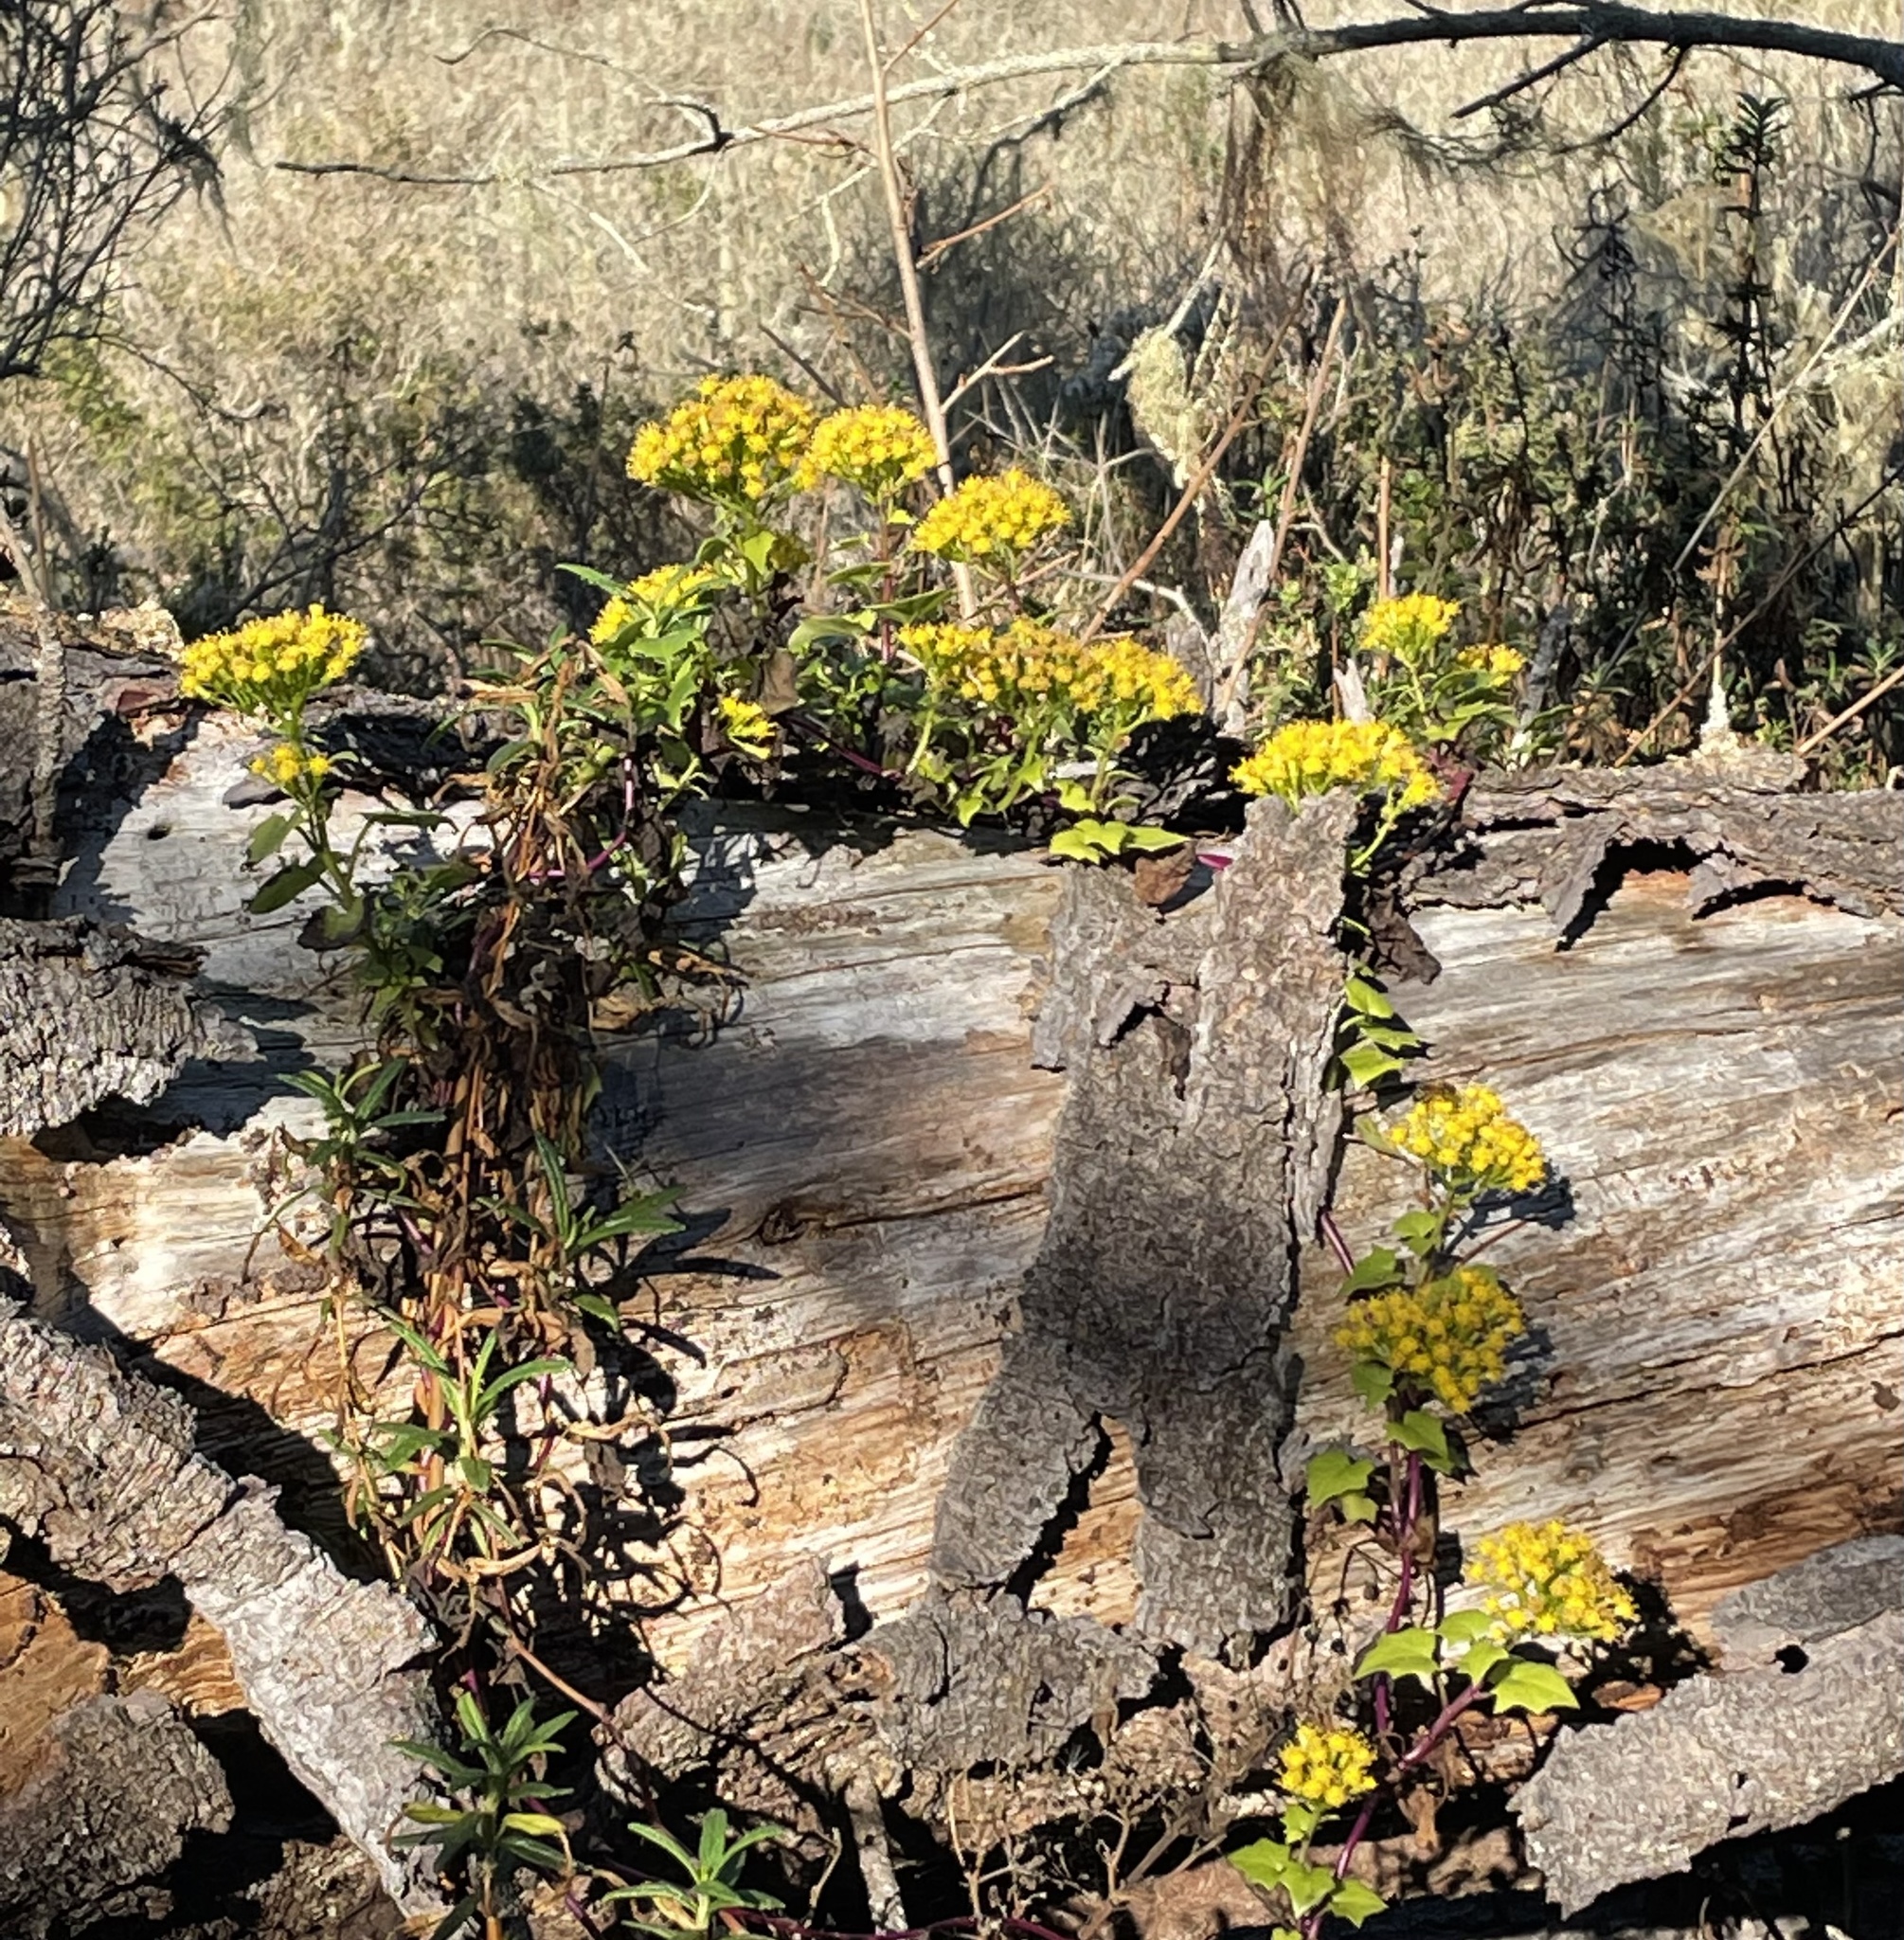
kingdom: Plantae
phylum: Tracheophyta
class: Magnoliopsida
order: Asterales
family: Asteraceae
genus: Delairea
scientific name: Delairea odorata
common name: Cape-ivy
